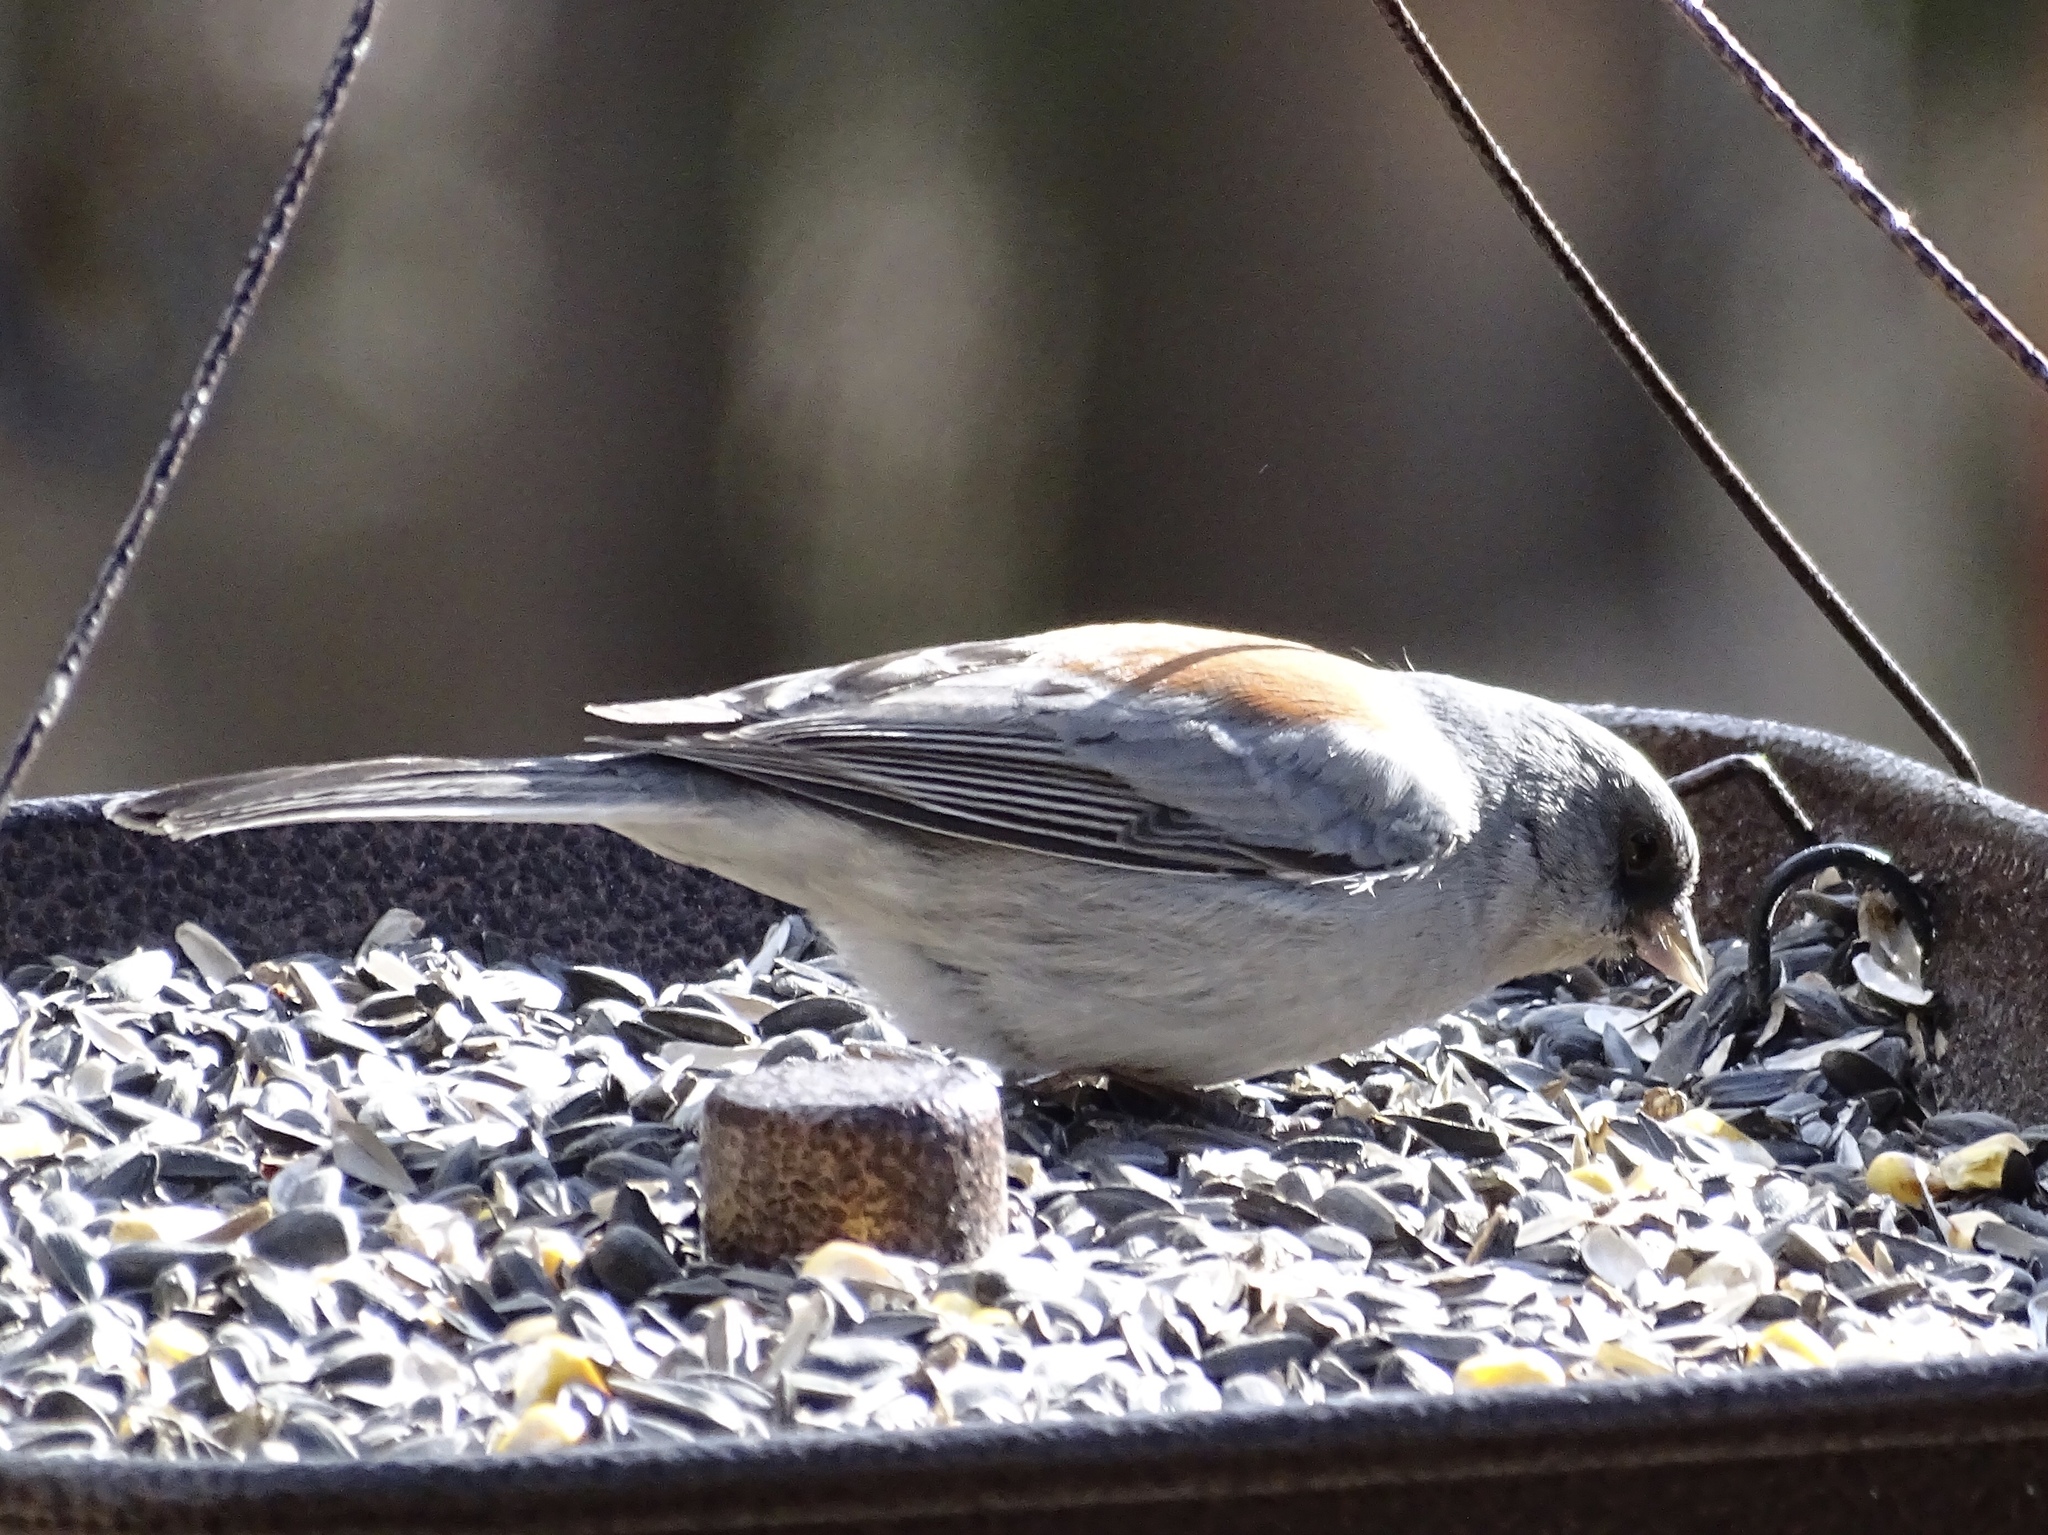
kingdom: Animalia
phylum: Chordata
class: Aves
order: Passeriformes
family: Passerellidae
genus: Junco
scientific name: Junco hyemalis
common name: Dark-eyed junco
